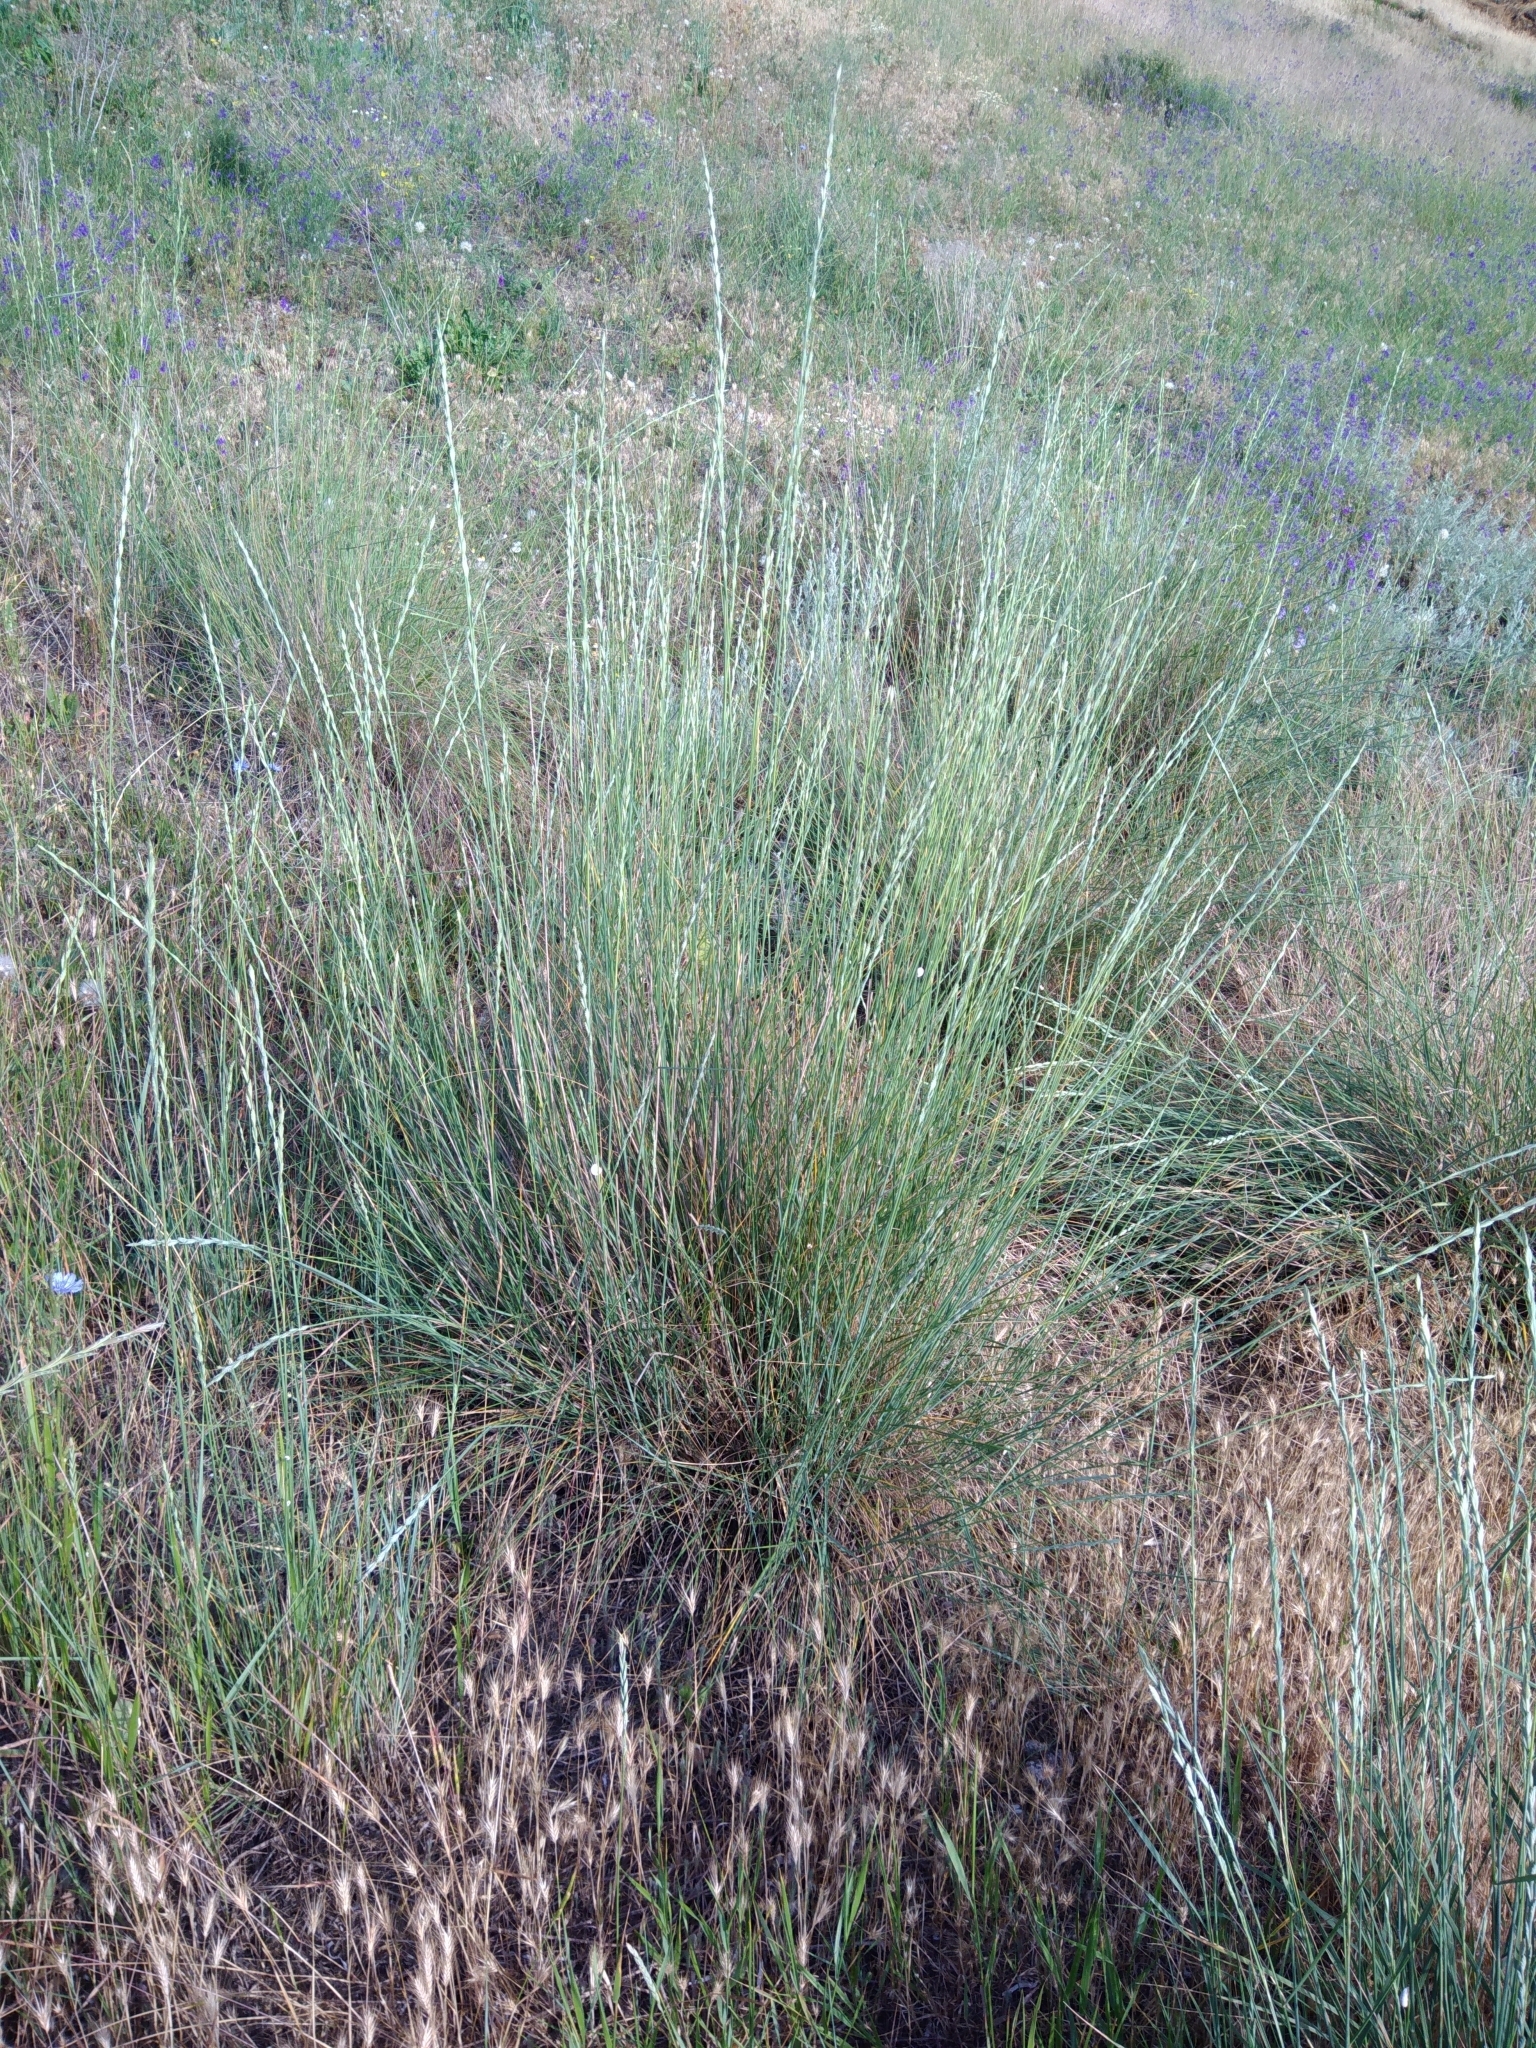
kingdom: Plantae
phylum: Tracheophyta
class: Liliopsida
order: Poales
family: Poaceae
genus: Thinopyrum
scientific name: Thinopyrum elongatum
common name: Tall wheatgrass
